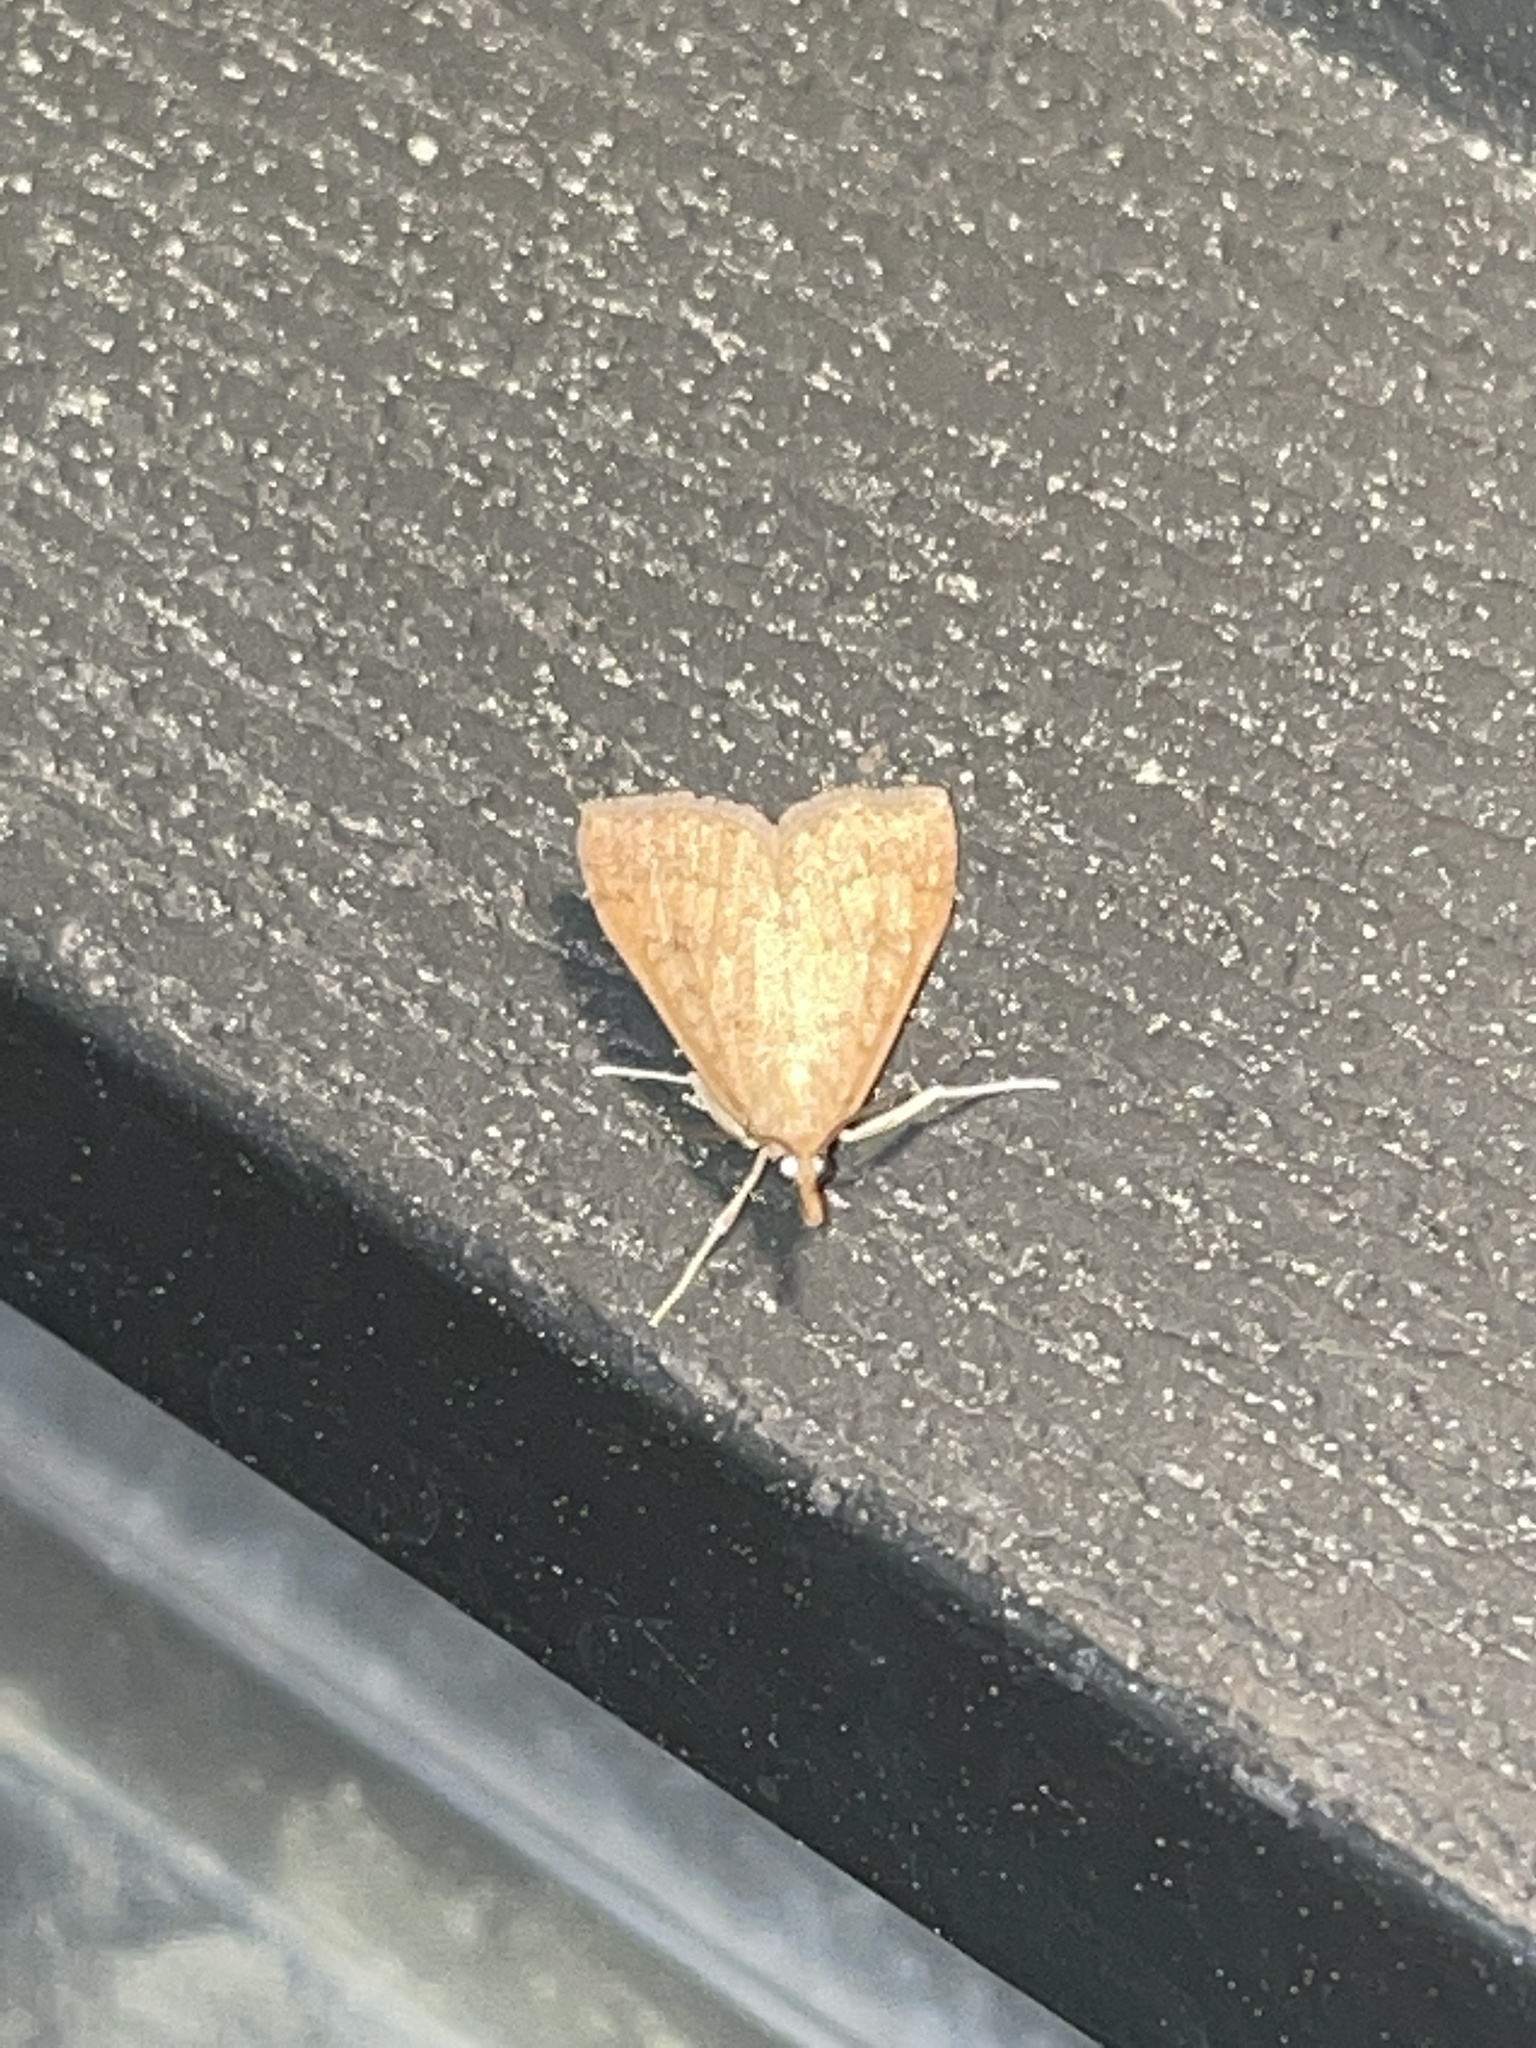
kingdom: Animalia
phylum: Arthropoda
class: Insecta
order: Lepidoptera
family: Crambidae
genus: Udea
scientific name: Udea rubigalis
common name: Celery leaftier moth
